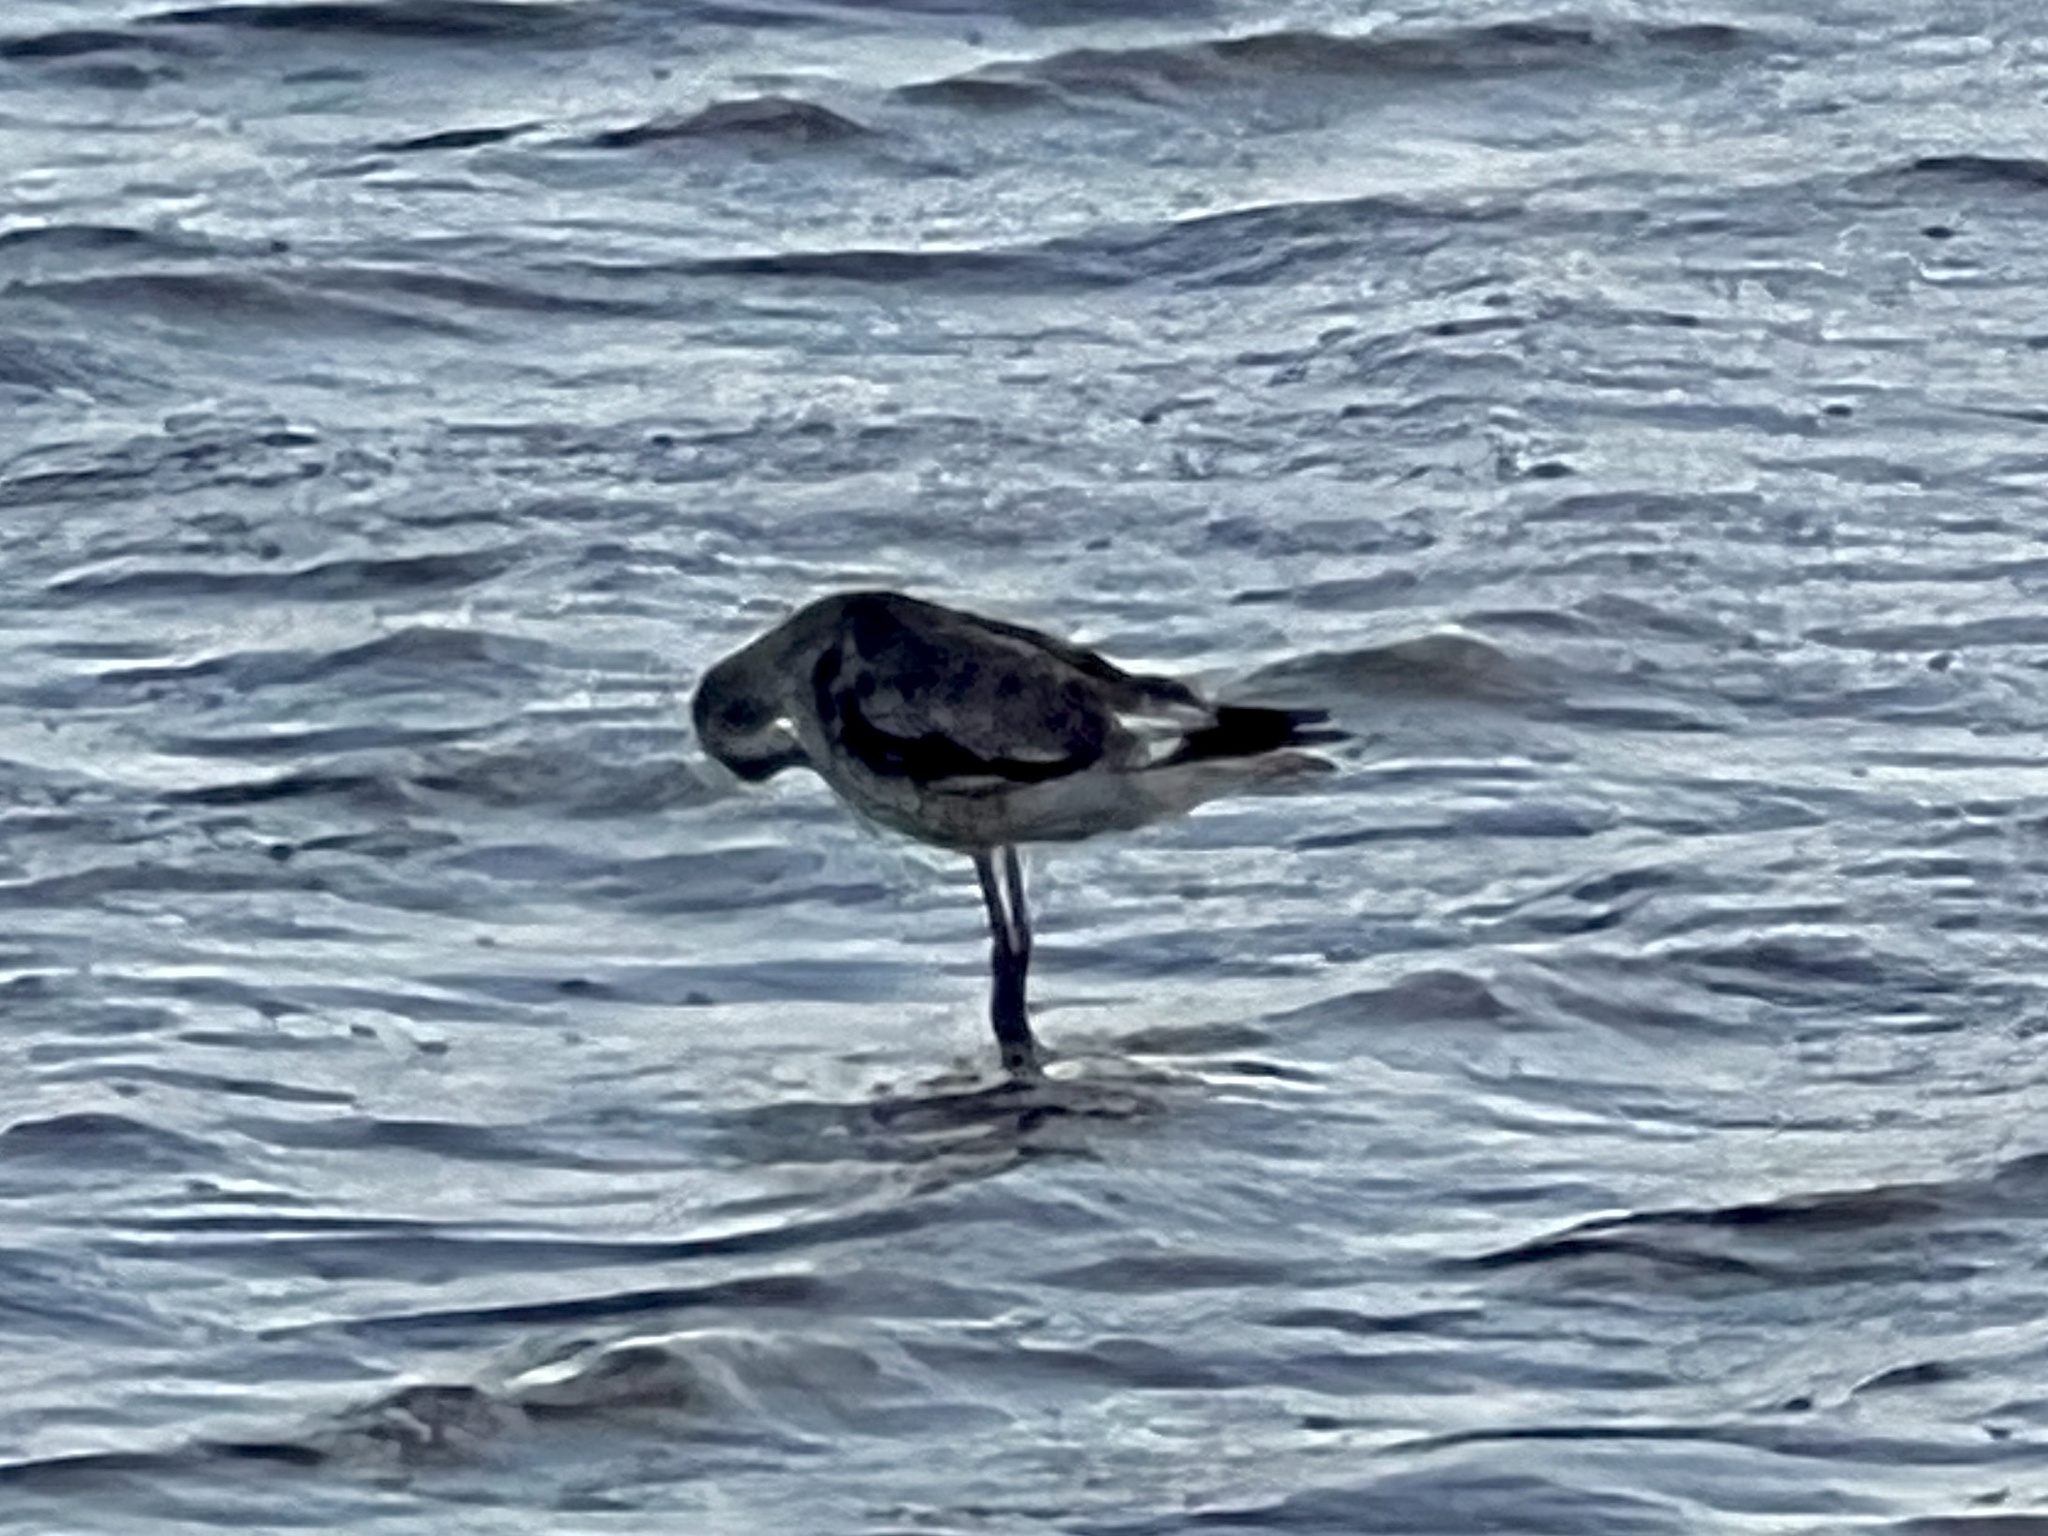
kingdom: Animalia
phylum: Chordata
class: Aves
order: Charadriiformes
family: Scolopacidae
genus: Tringa
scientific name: Tringa semipalmata
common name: Willet
